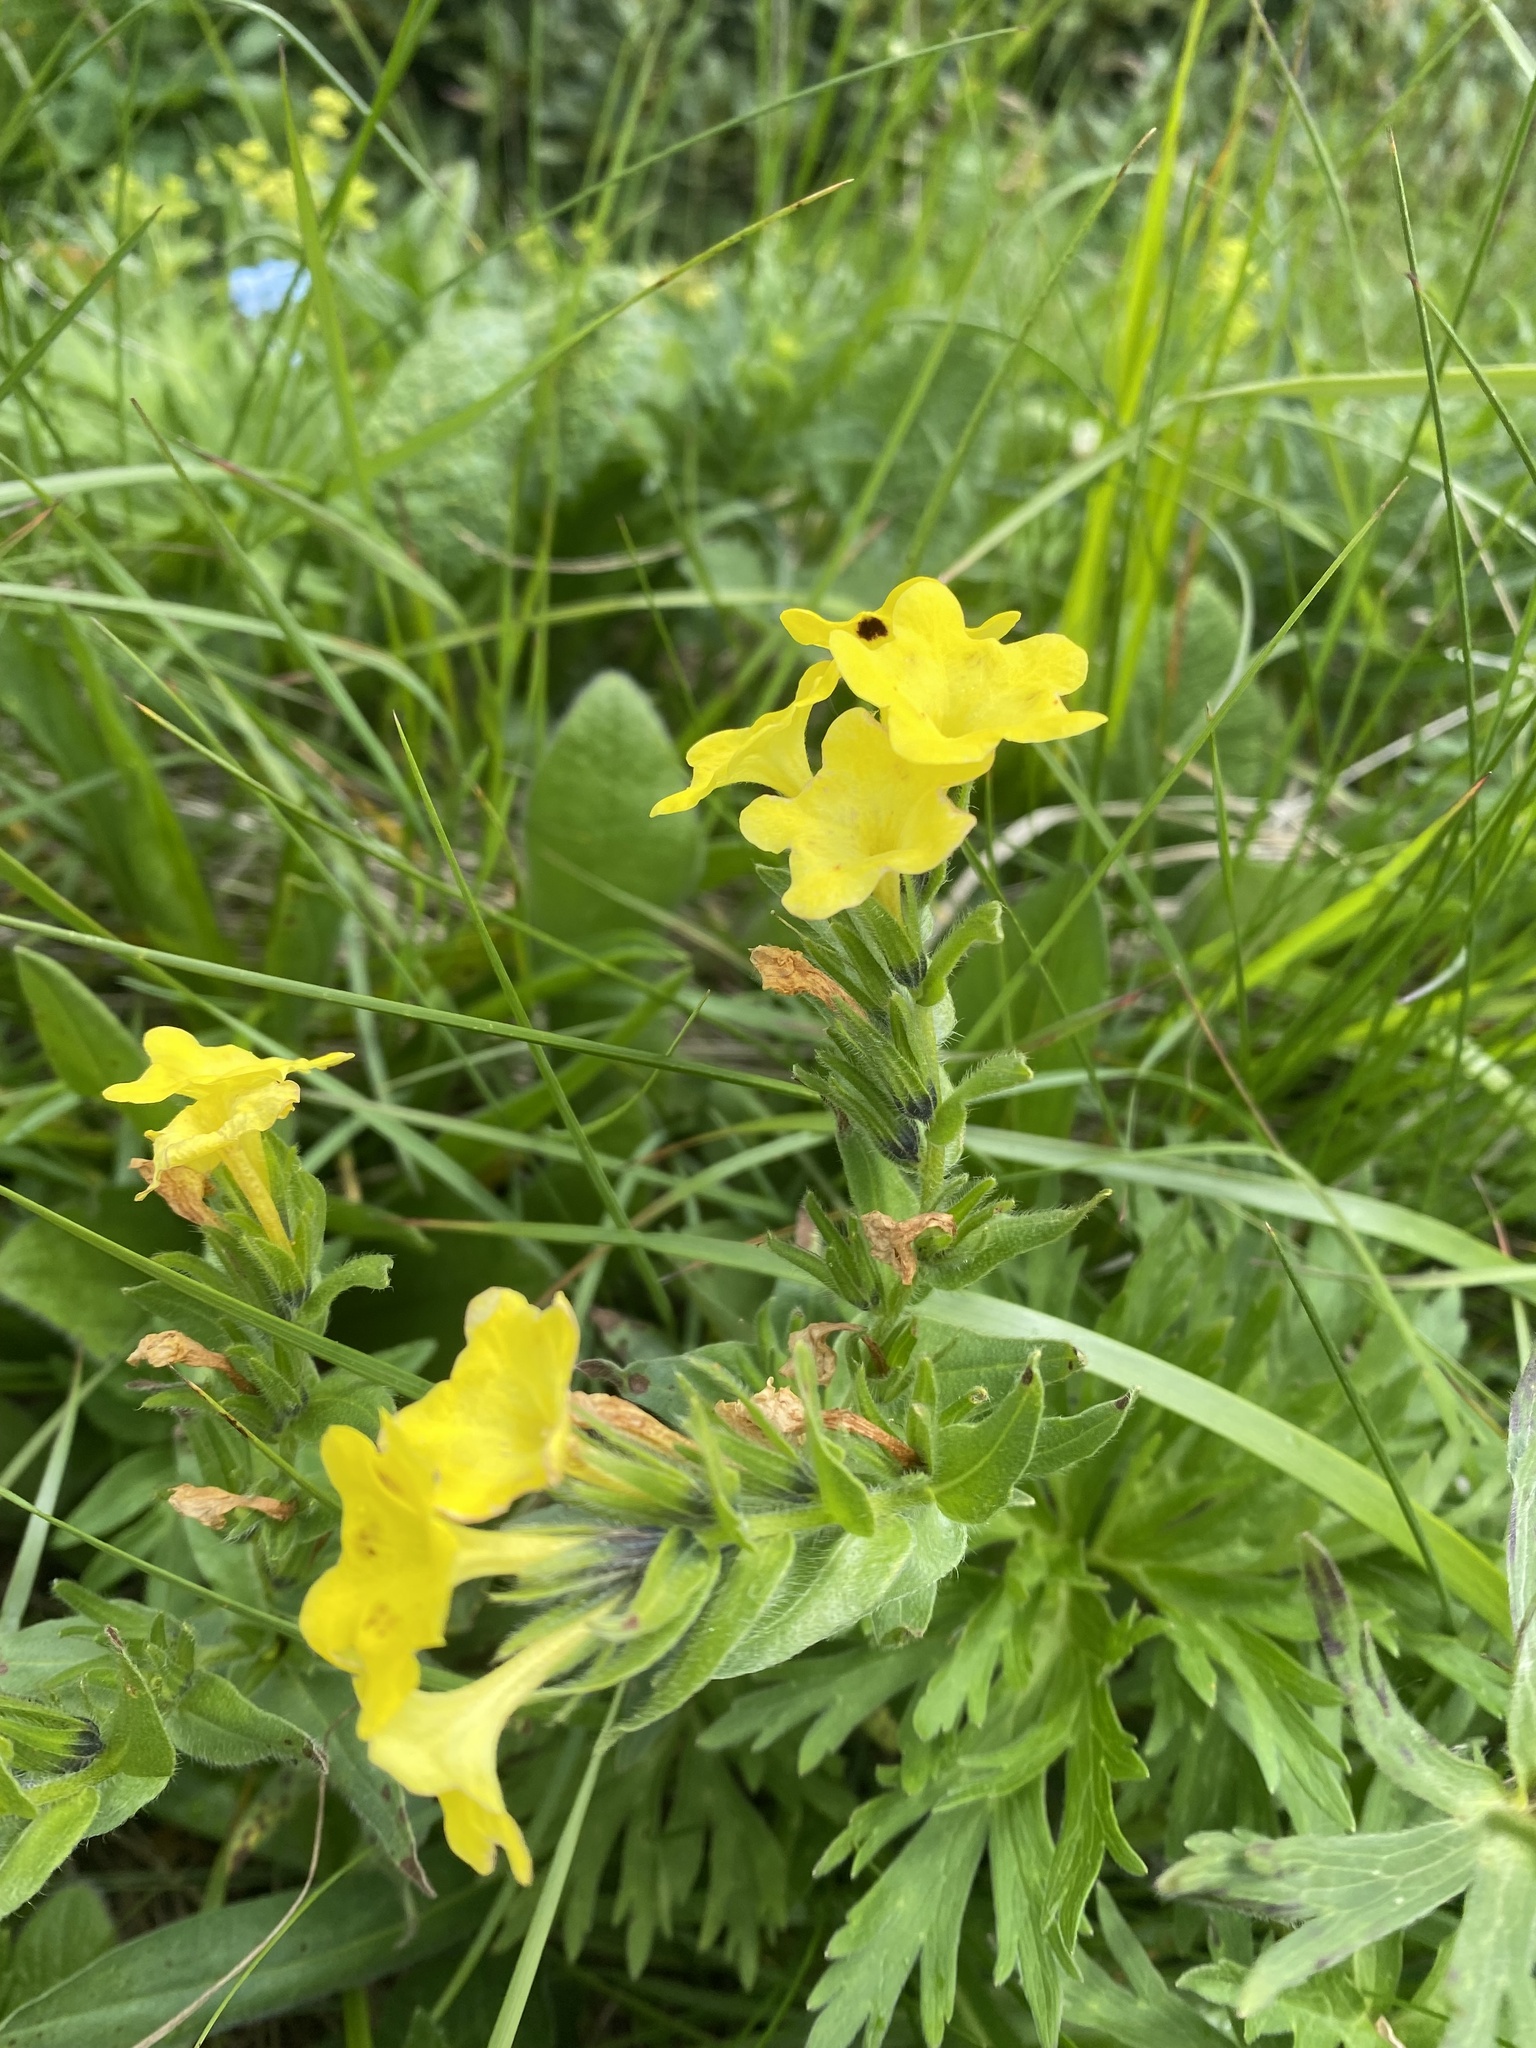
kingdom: Plantae
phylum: Tracheophyta
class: Magnoliopsida
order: Boraginales
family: Boraginaceae
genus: Huynhia
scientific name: Huynhia pulchra
